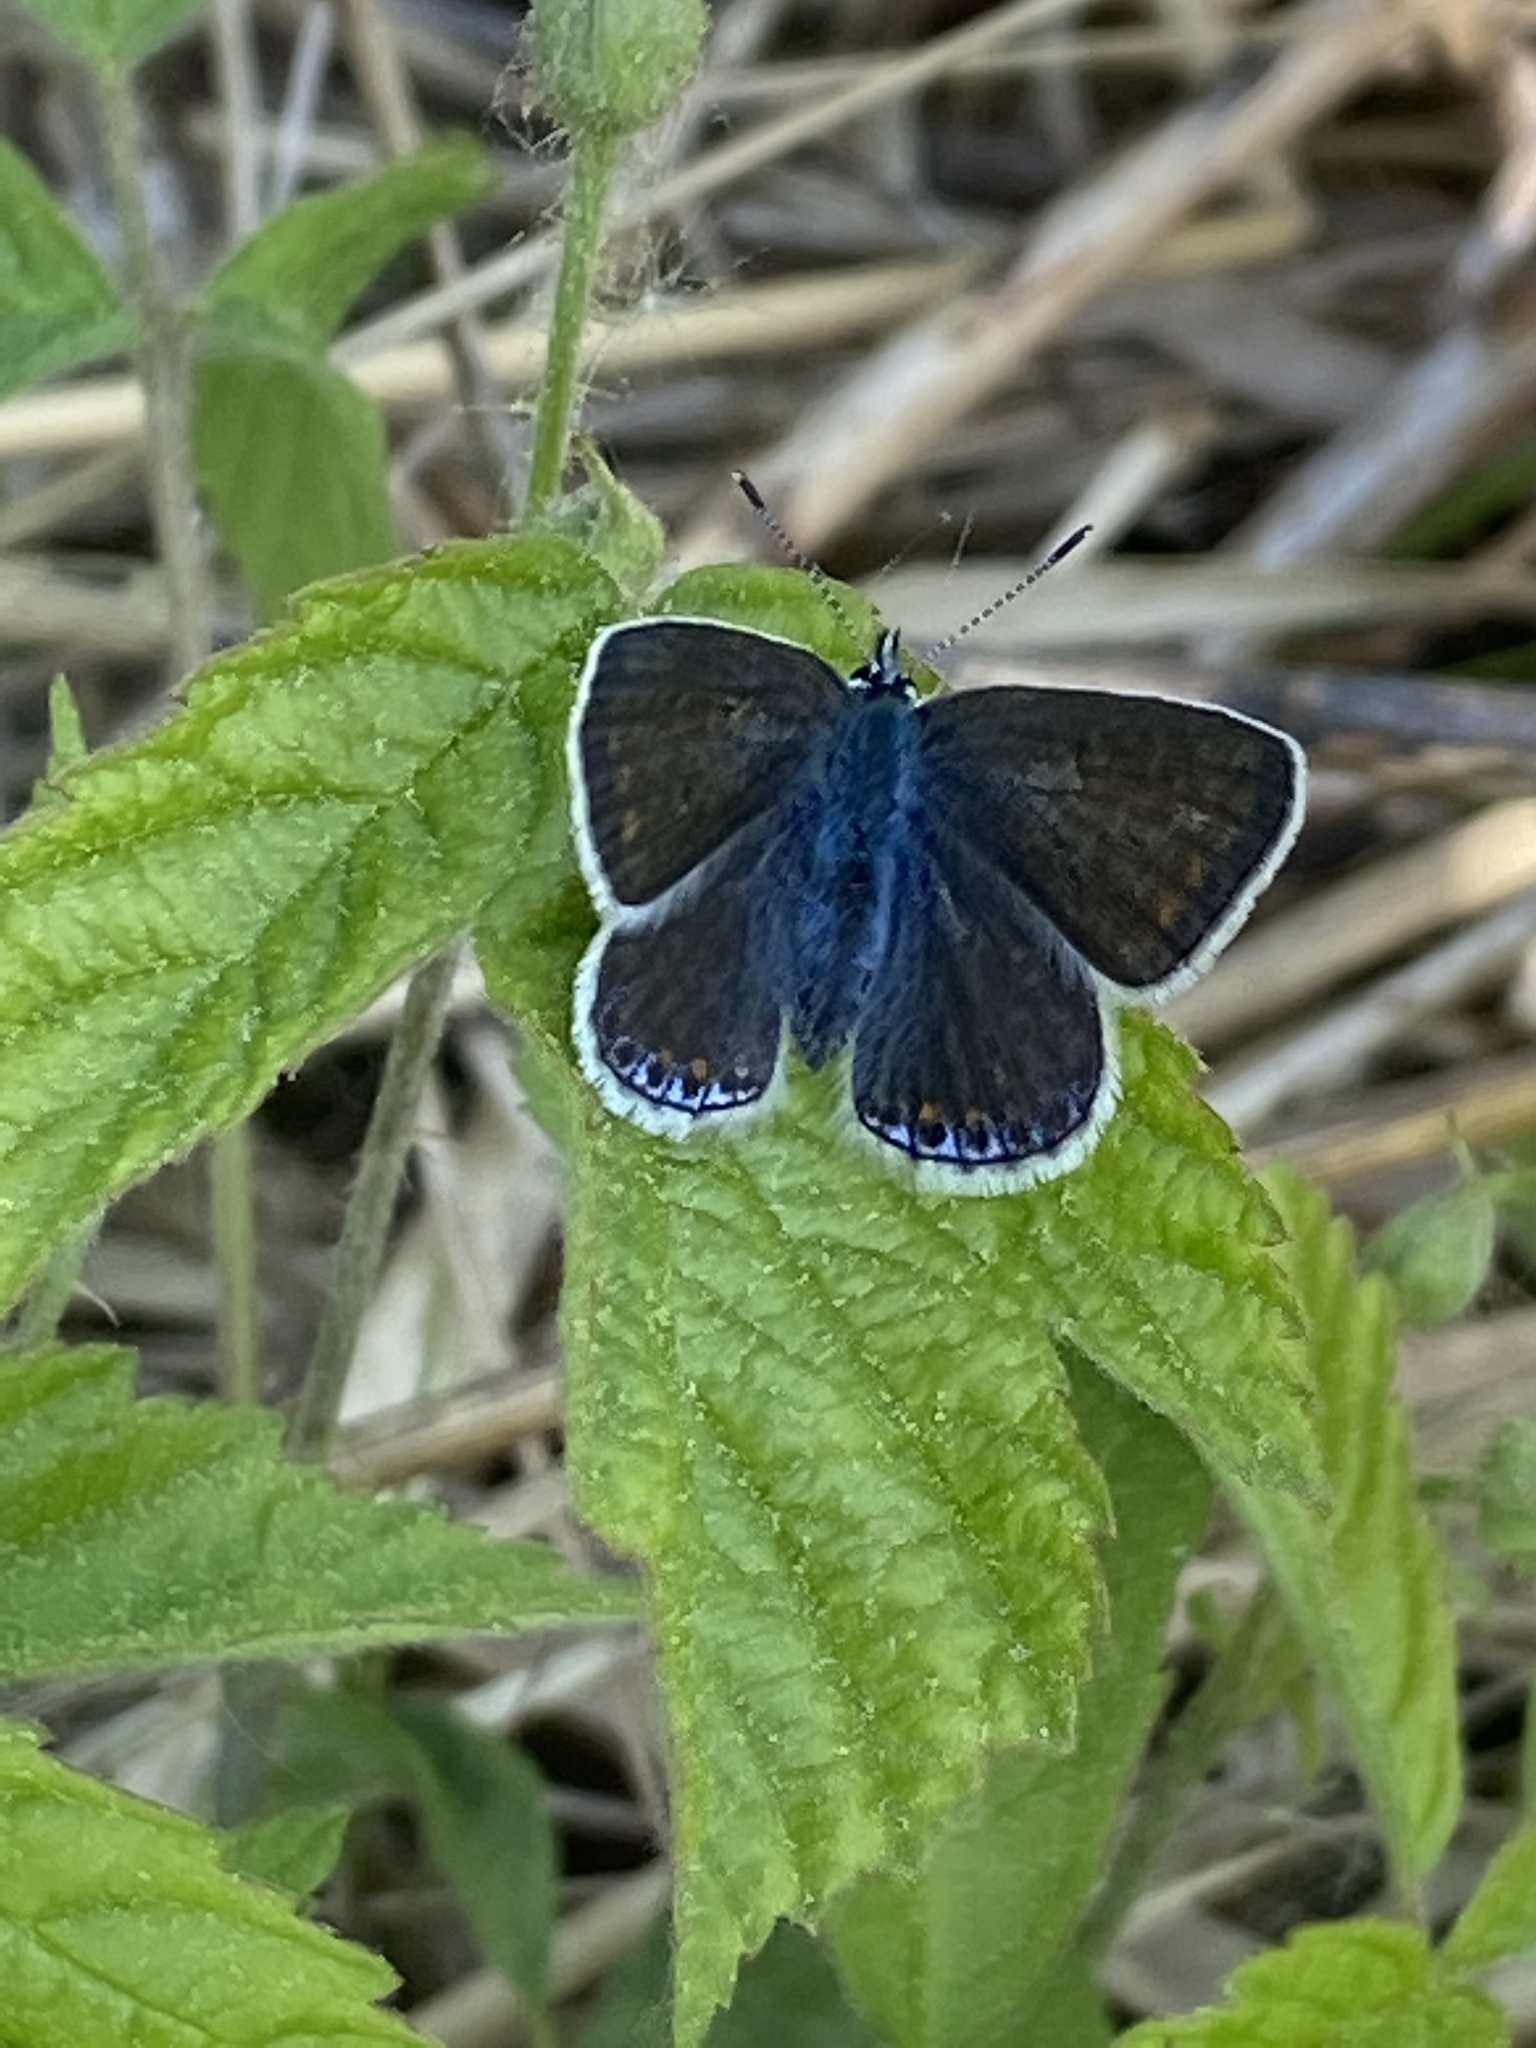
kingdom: Animalia
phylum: Arthropoda
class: Insecta
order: Lepidoptera
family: Lycaenidae
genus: Polyommatus
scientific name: Polyommatus icarus
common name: Common blue
